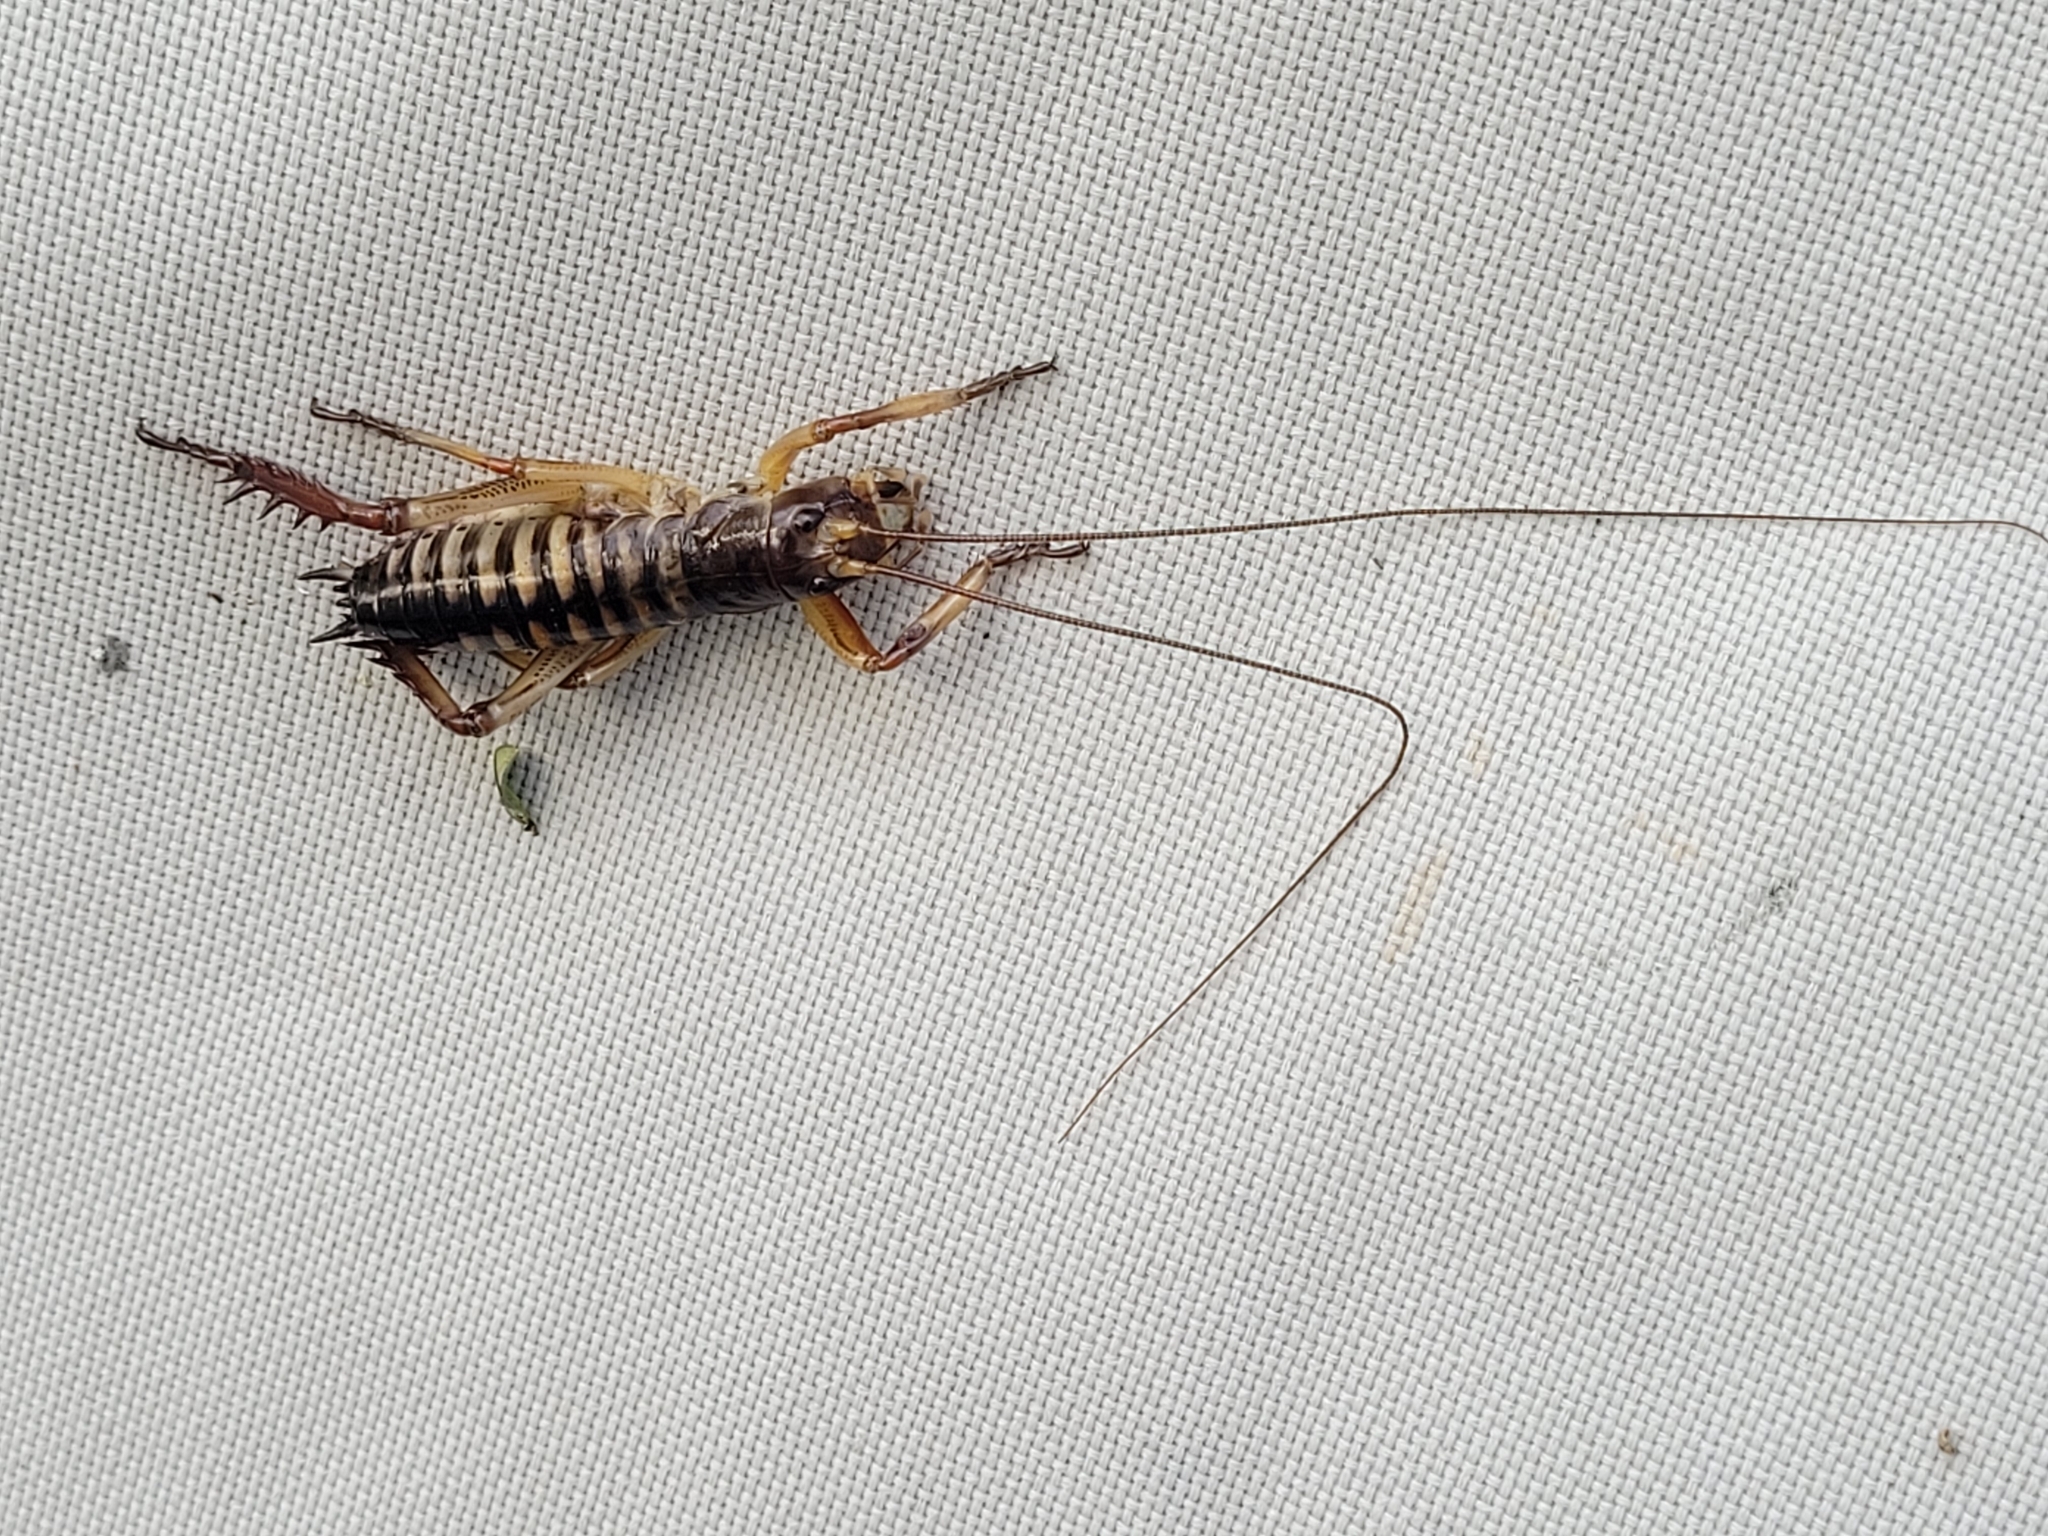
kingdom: Animalia
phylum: Arthropoda
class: Insecta
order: Orthoptera
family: Anostostomatidae
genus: Hemideina
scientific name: Hemideina crassidens
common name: Wellington tree weta
